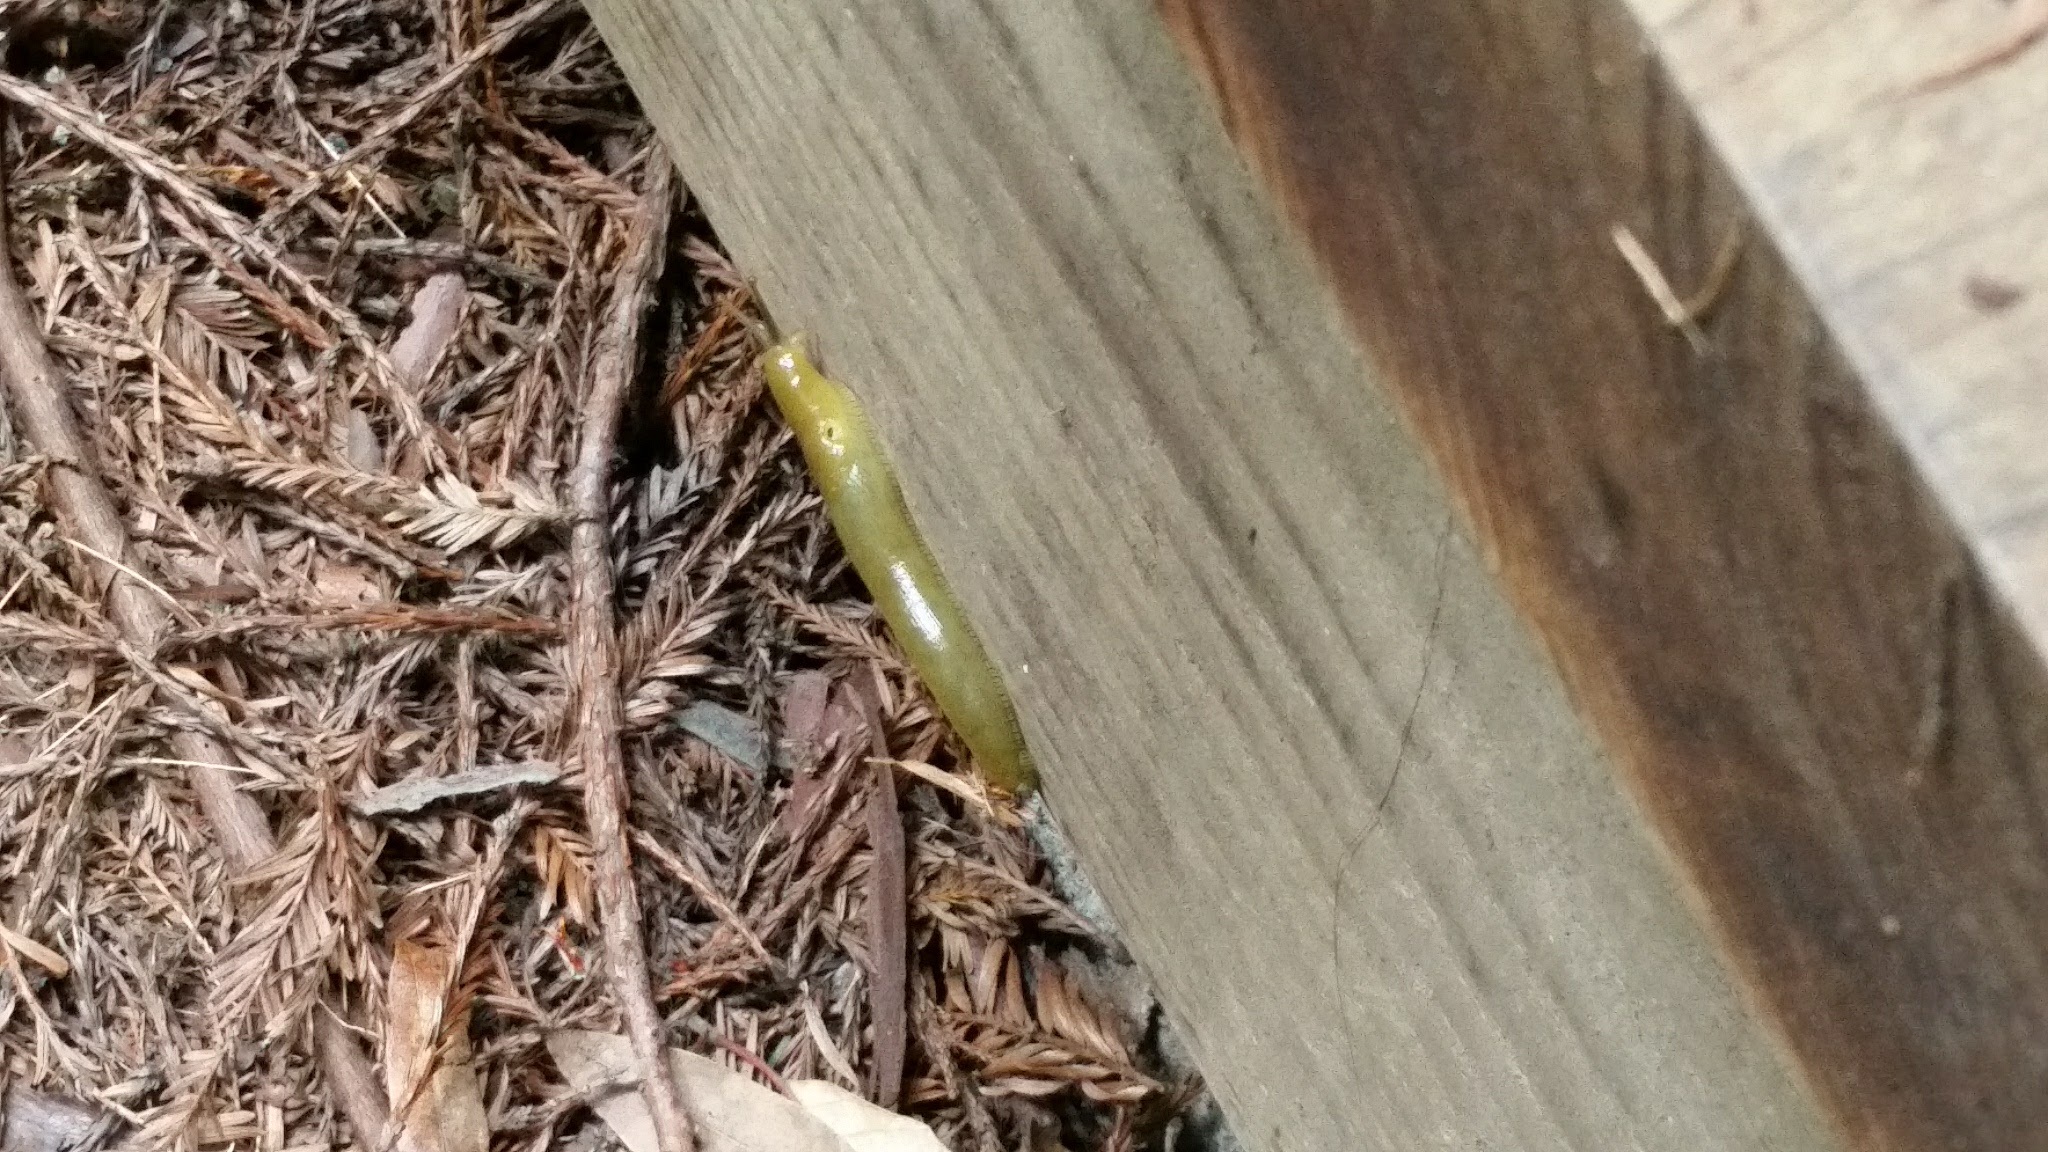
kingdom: Animalia
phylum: Mollusca
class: Gastropoda
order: Stylommatophora
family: Ariolimacidae
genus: Ariolimax
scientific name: Ariolimax buttoni
